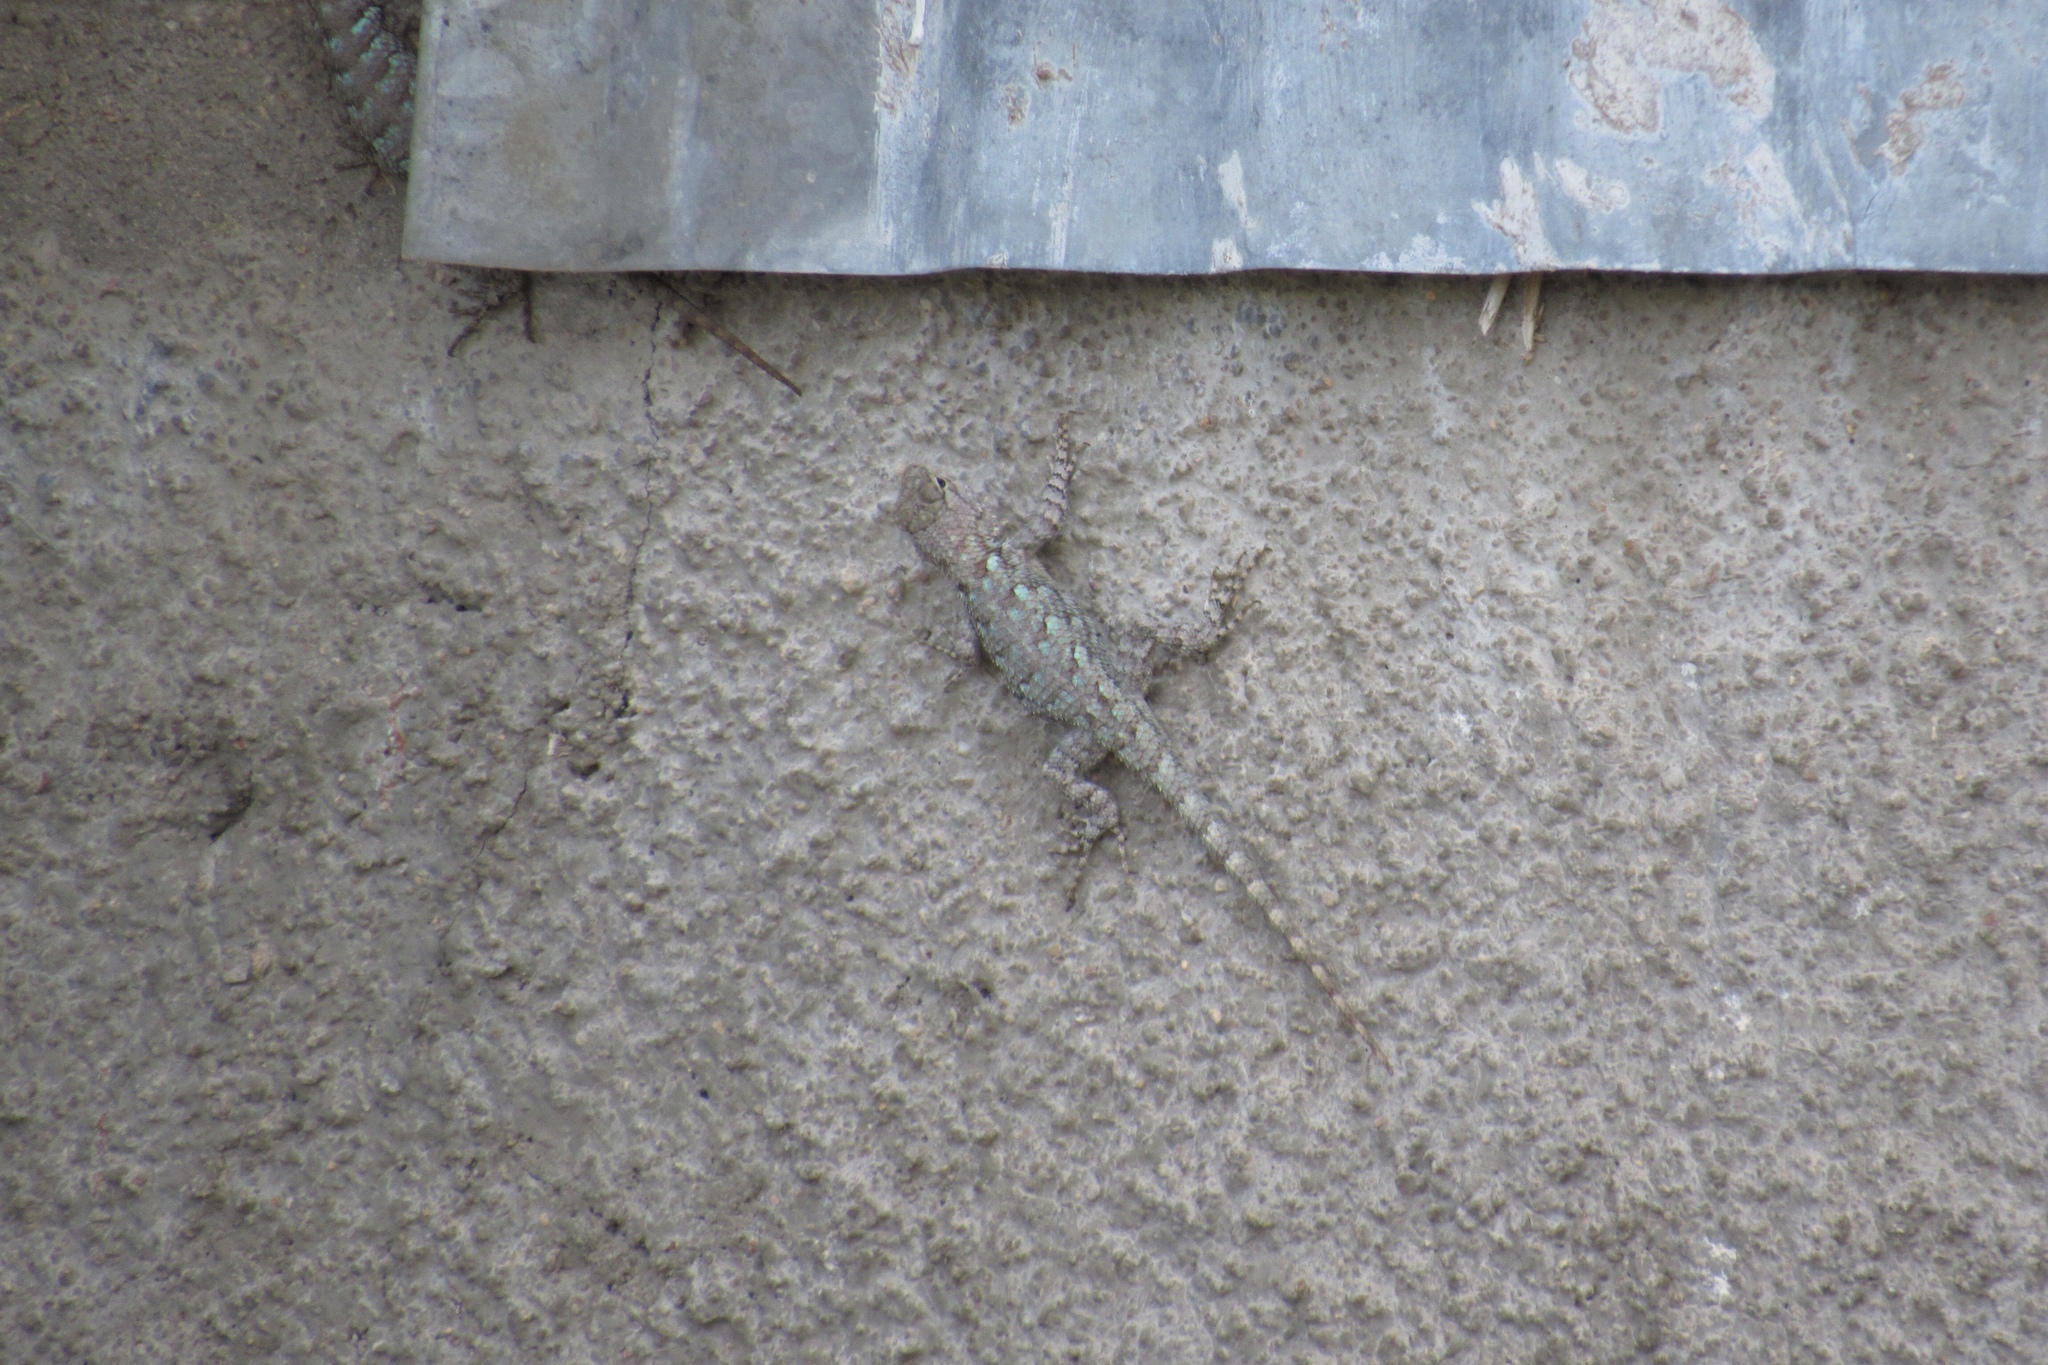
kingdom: Animalia
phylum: Chordata
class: Squamata
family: Phrynosomatidae
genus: Sceloporus
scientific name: Sceloporus clarkii
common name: Clark's spiny lizard
